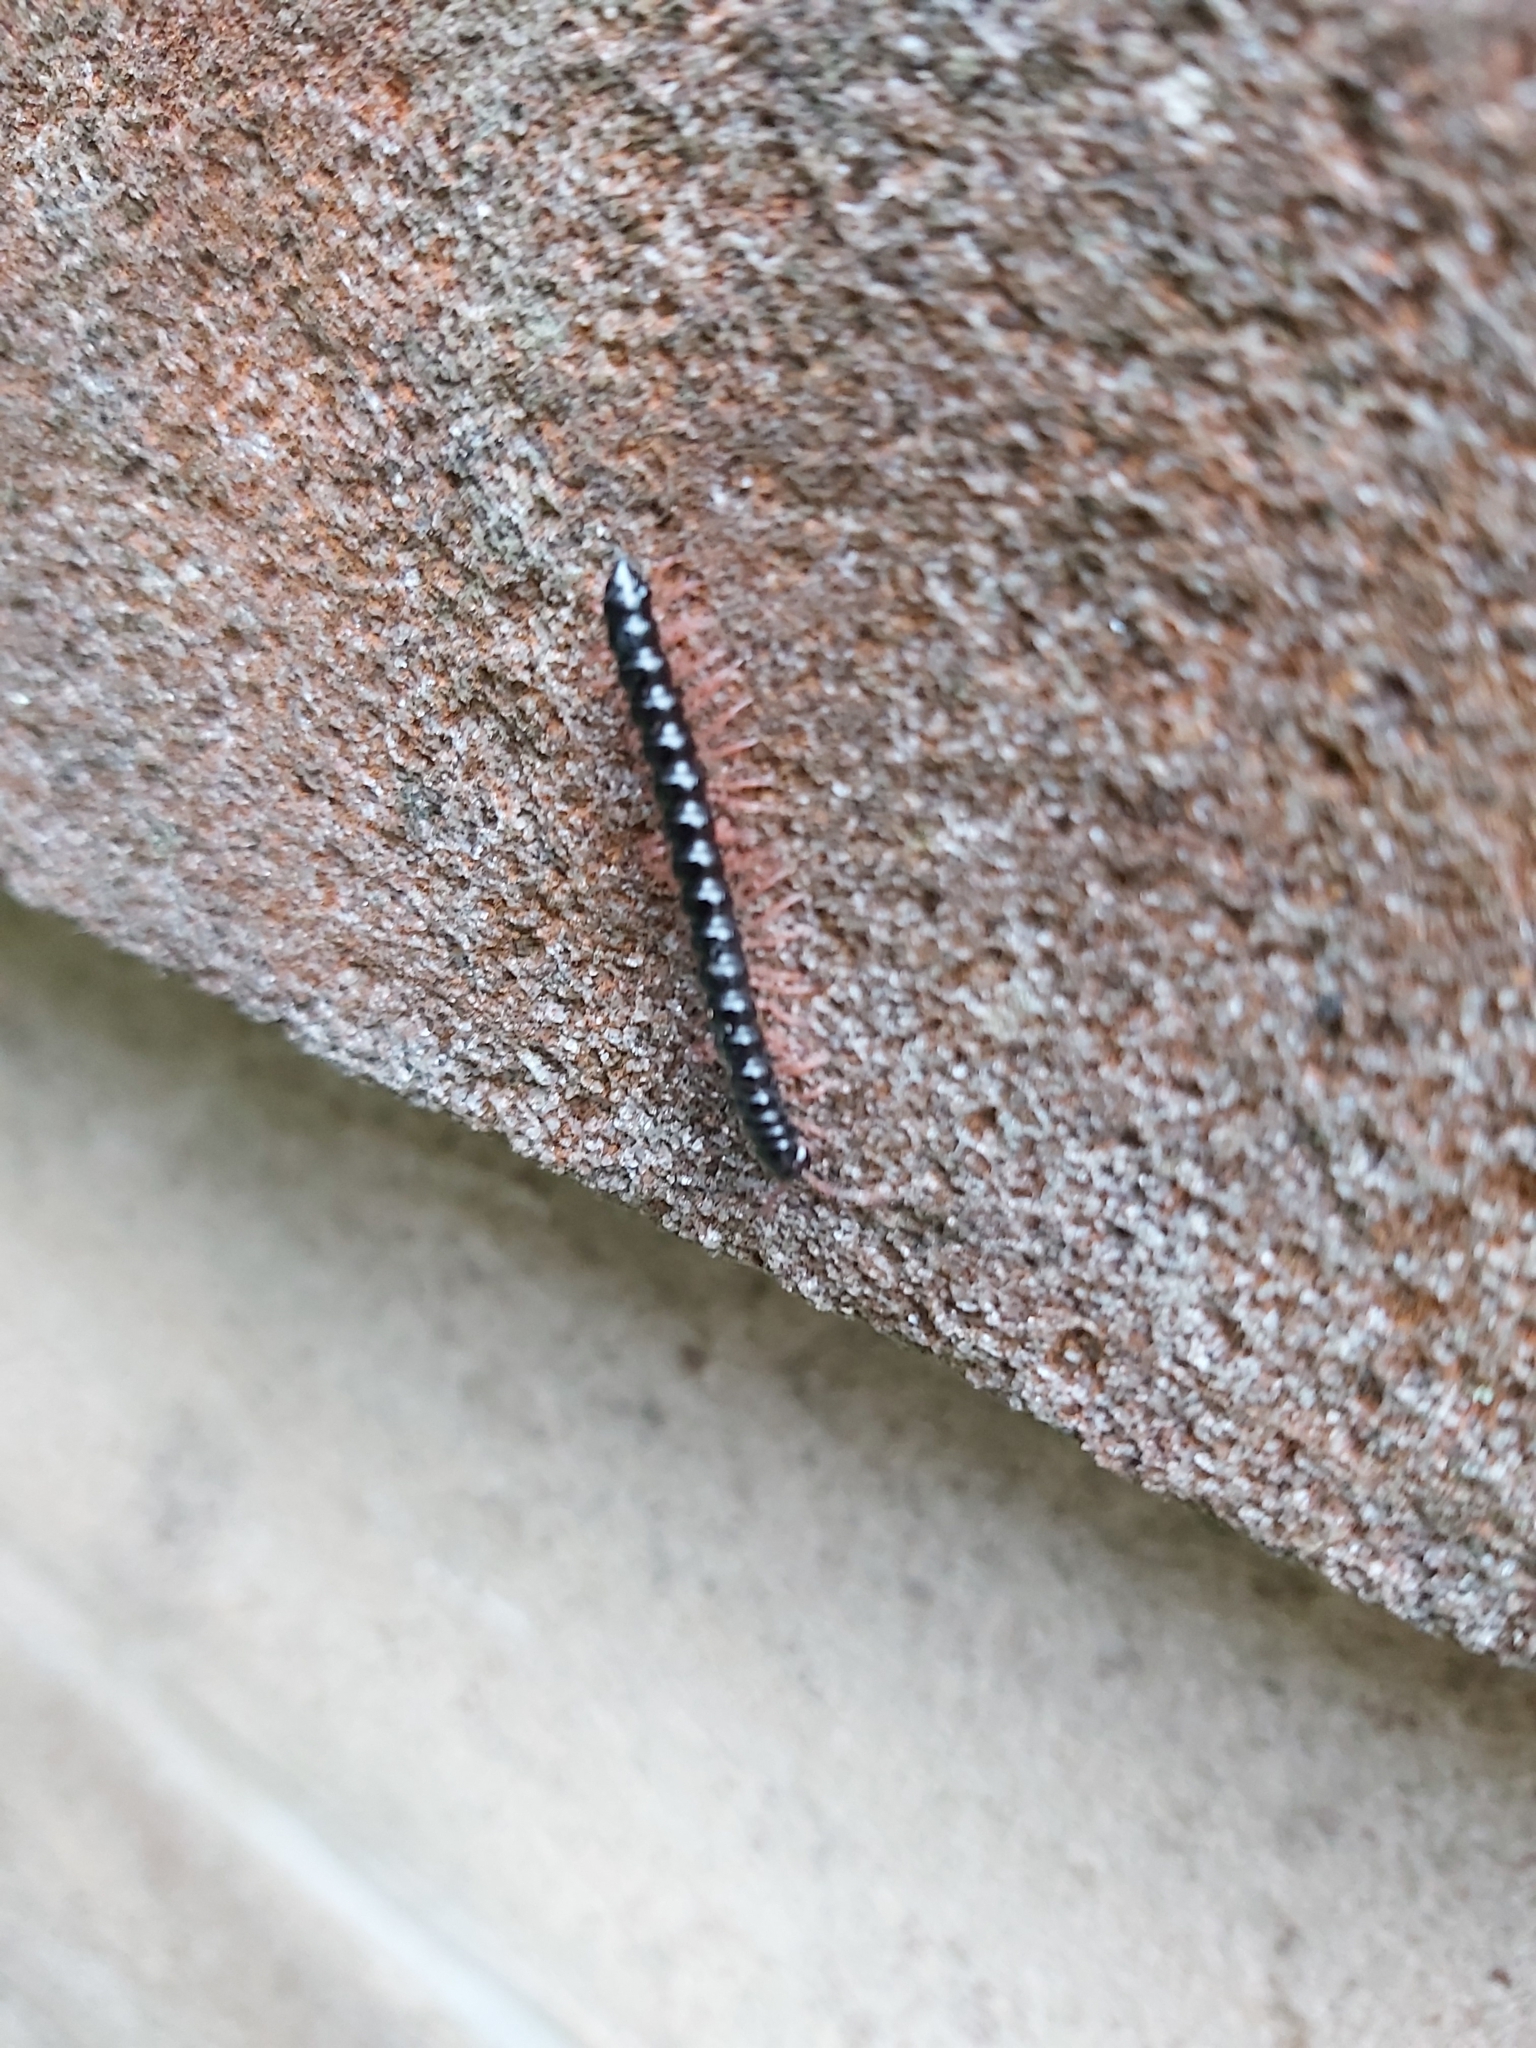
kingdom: Animalia
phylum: Arthropoda
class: Diplopoda
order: Polydesmida
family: Paradoxosomatidae
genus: Heterocladosoma
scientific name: Heterocladosoma
